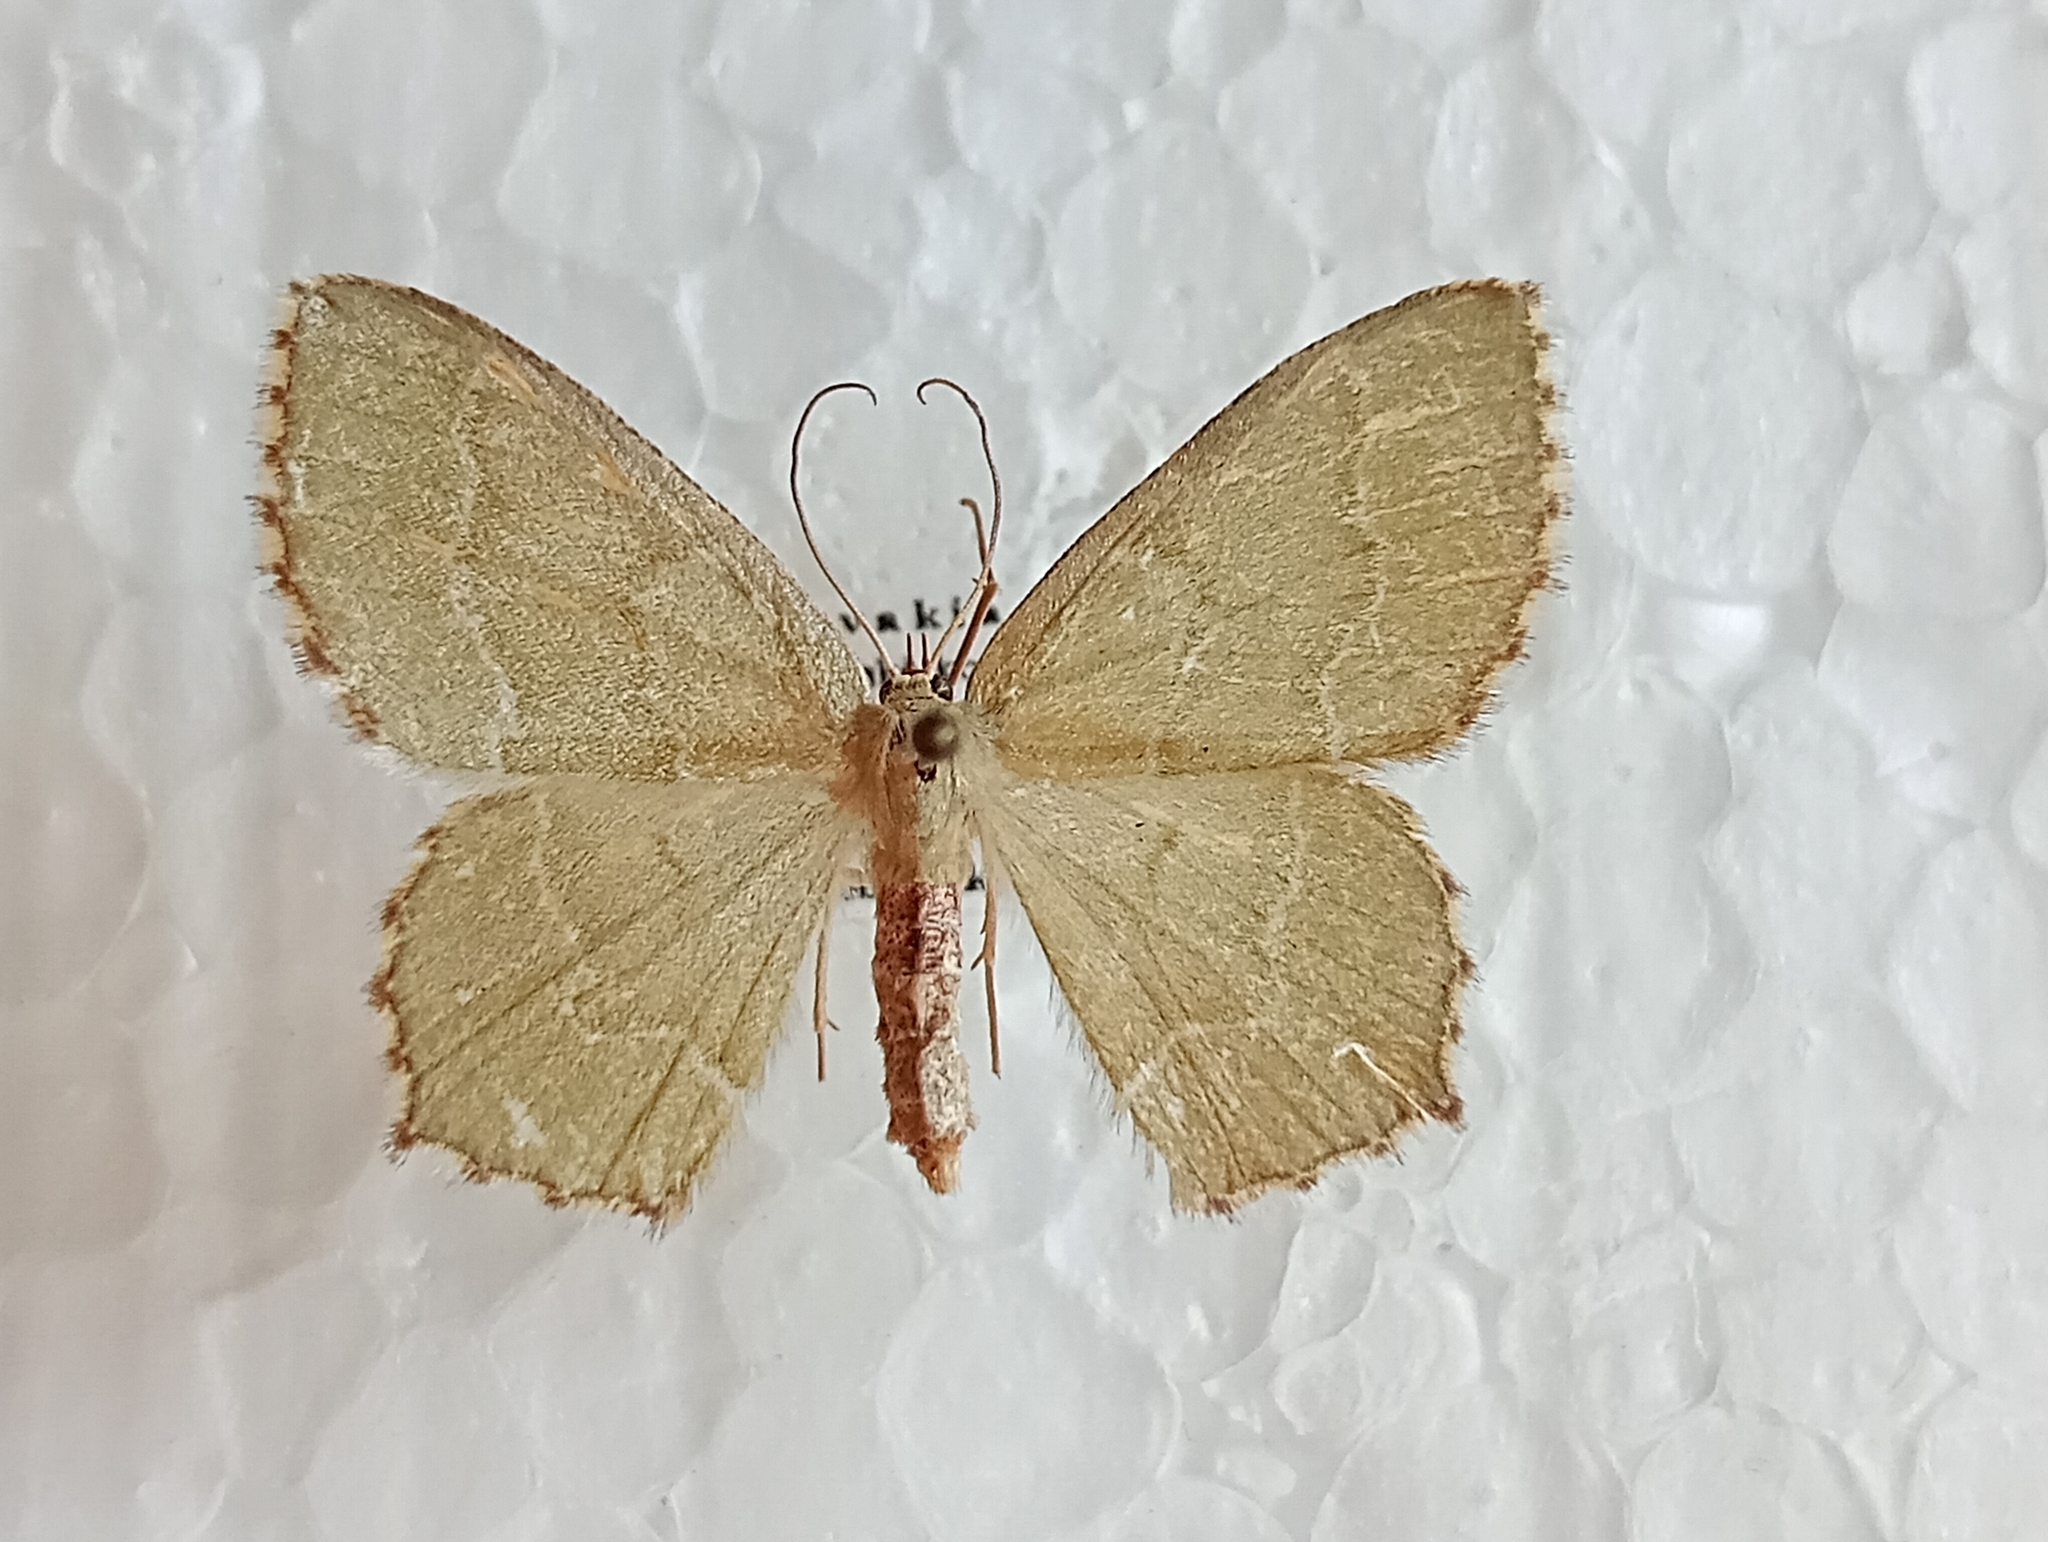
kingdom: Animalia
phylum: Arthropoda
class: Insecta
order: Lepidoptera
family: Geometridae
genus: Hemithea
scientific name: Hemithea aestivaria
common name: Common emerald
